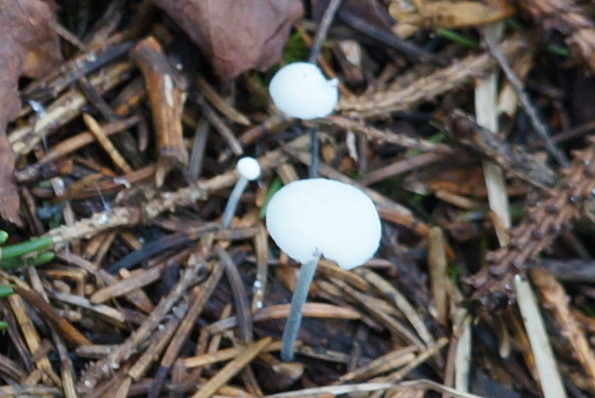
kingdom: Fungi
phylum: Basidiomycota
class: Agaricomycetes
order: Agaricales
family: Marasmiaceae
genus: Tetrapyrgos
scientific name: Tetrapyrgos nigripes
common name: Black-stalked marasmius
